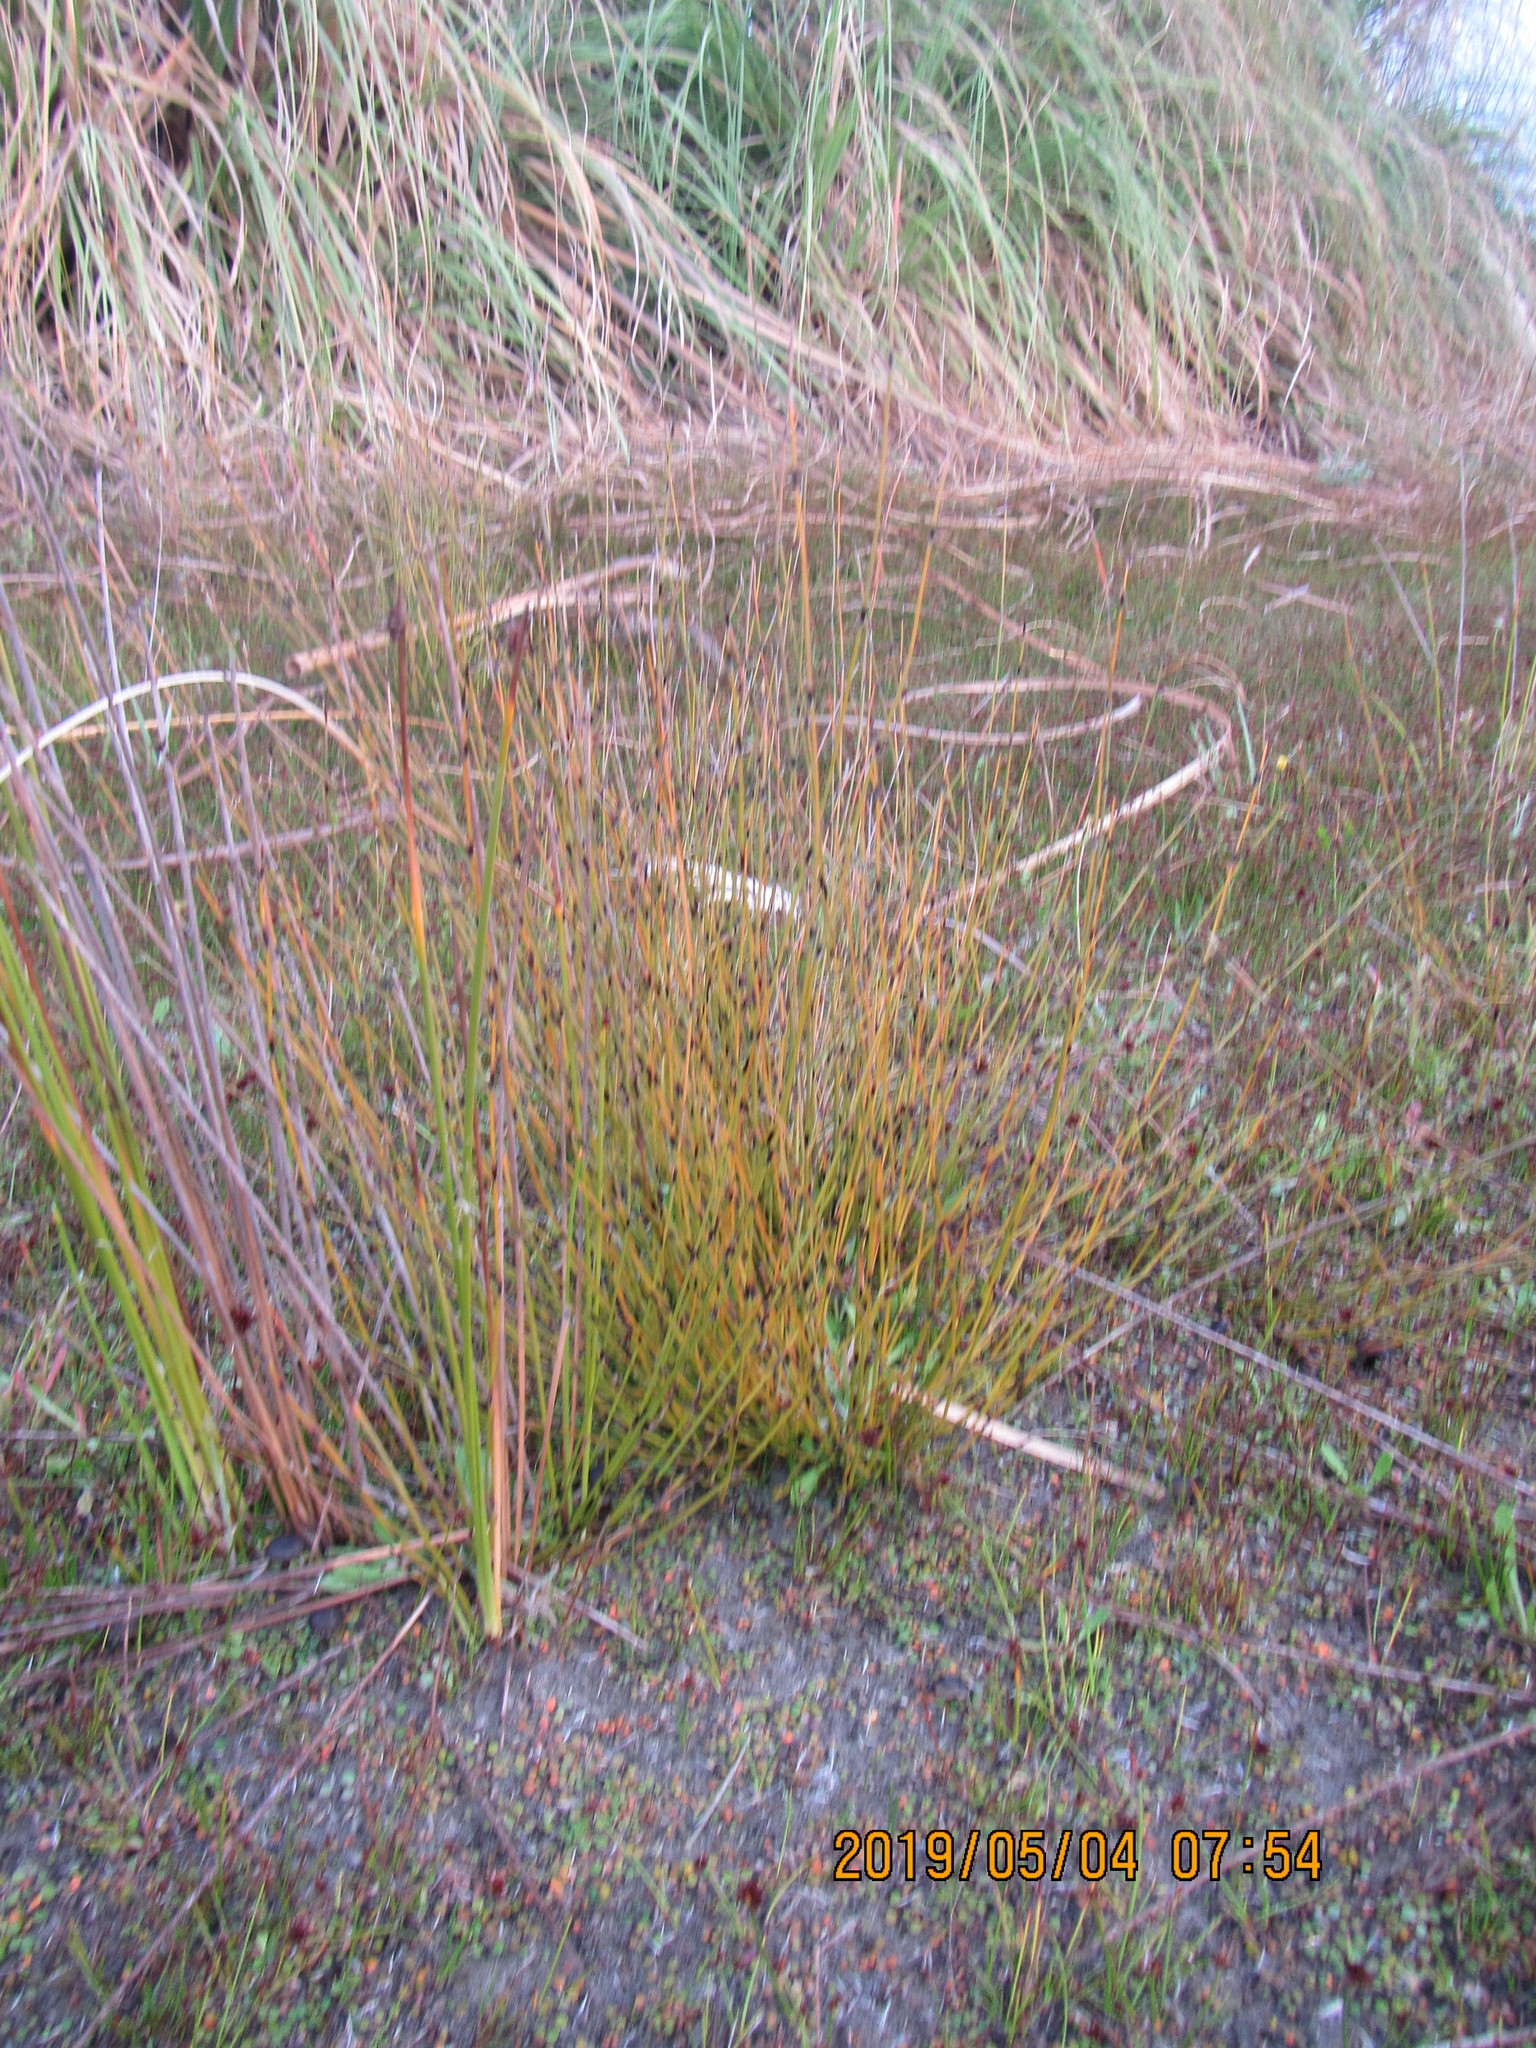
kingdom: Plantae
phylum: Tracheophyta
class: Liliopsida
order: Poales
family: Restionaceae
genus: Apodasmia
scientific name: Apodasmia similis
